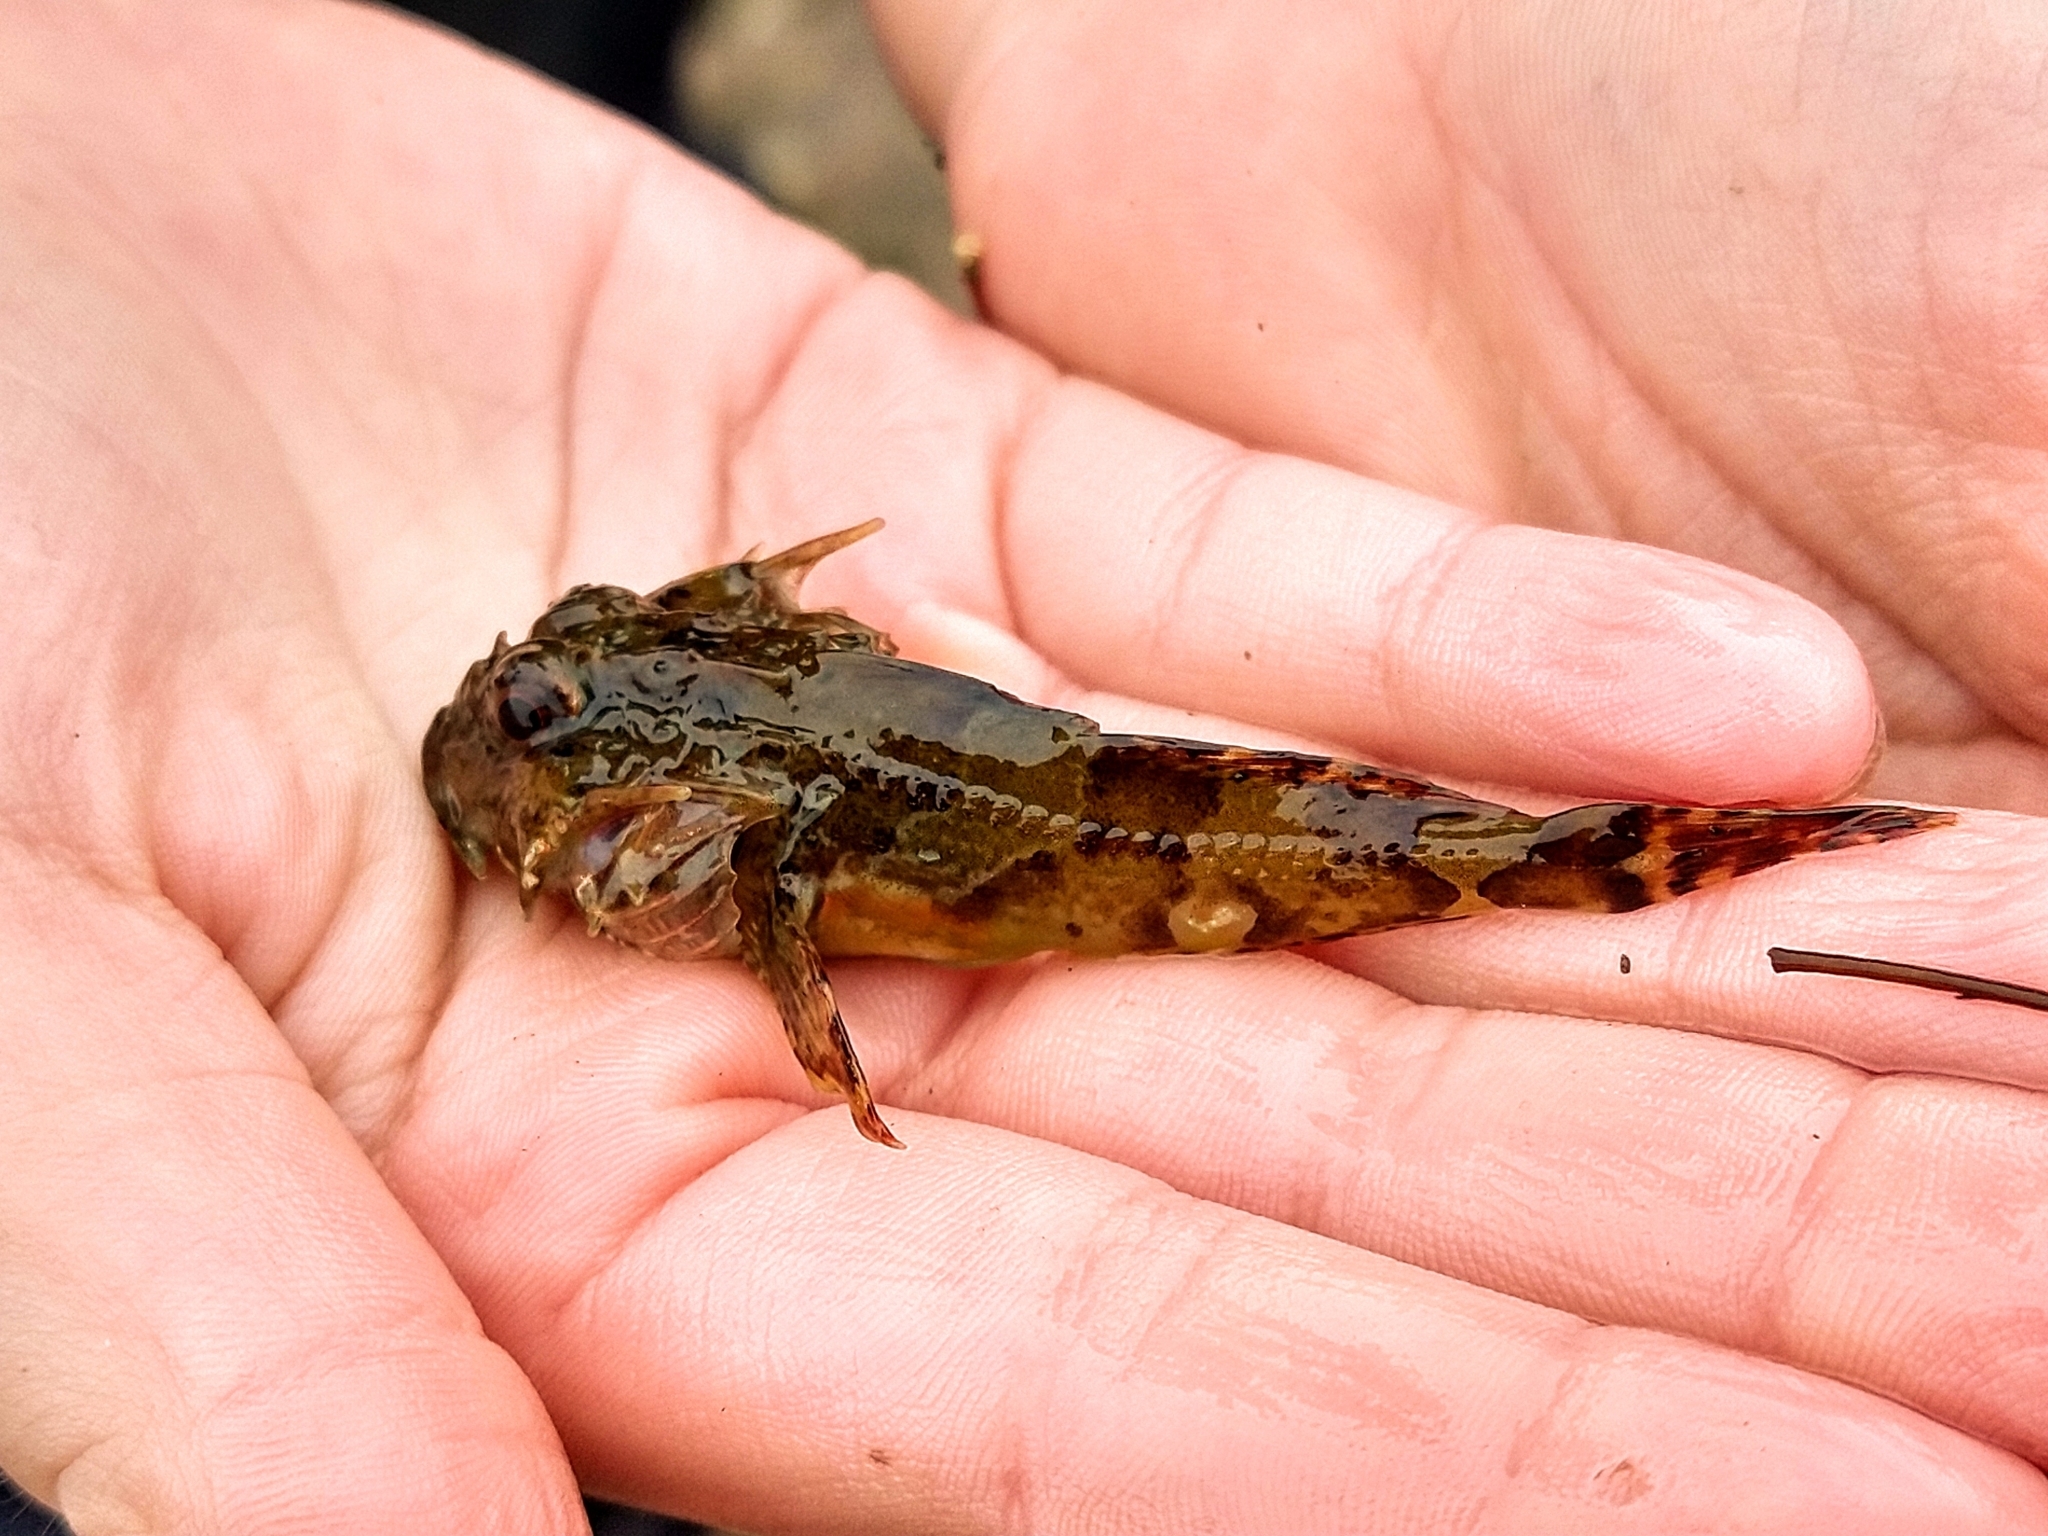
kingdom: Animalia
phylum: Chordata
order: Scorpaeniformes
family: Cottidae
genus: Taurulus
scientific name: Taurulus bubalis
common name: Sea scorpion
